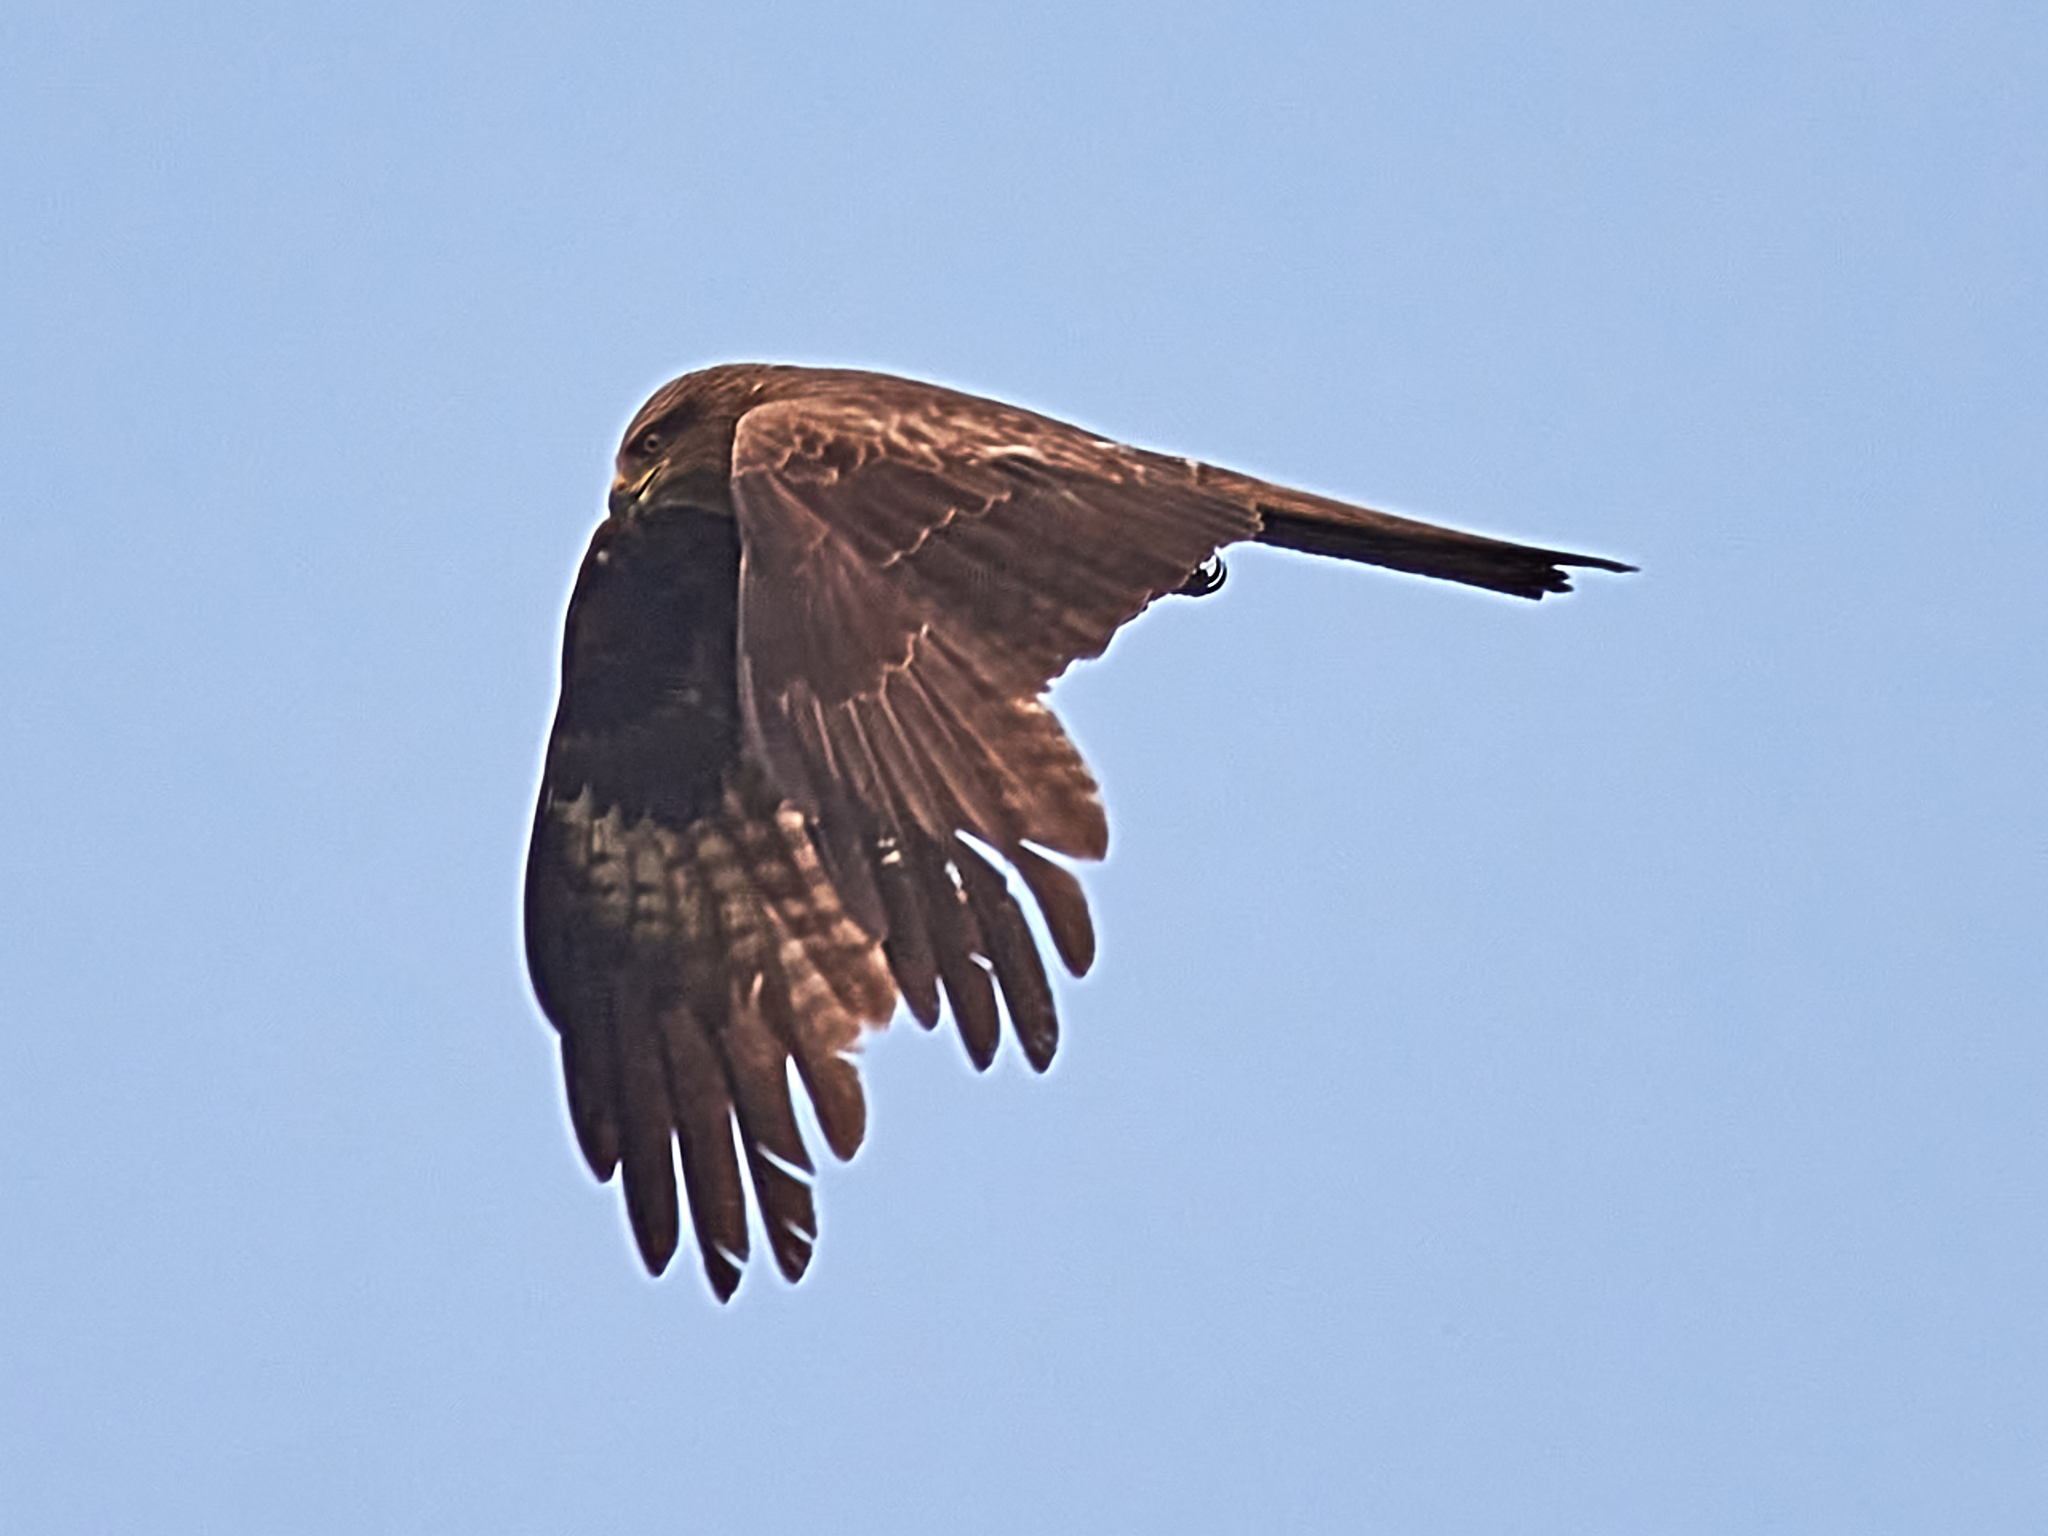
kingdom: Animalia
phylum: Chordata
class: Aves
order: Accipitriformes
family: Accipitridae
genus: Milvus
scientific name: Milvus migrans
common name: Black kite
